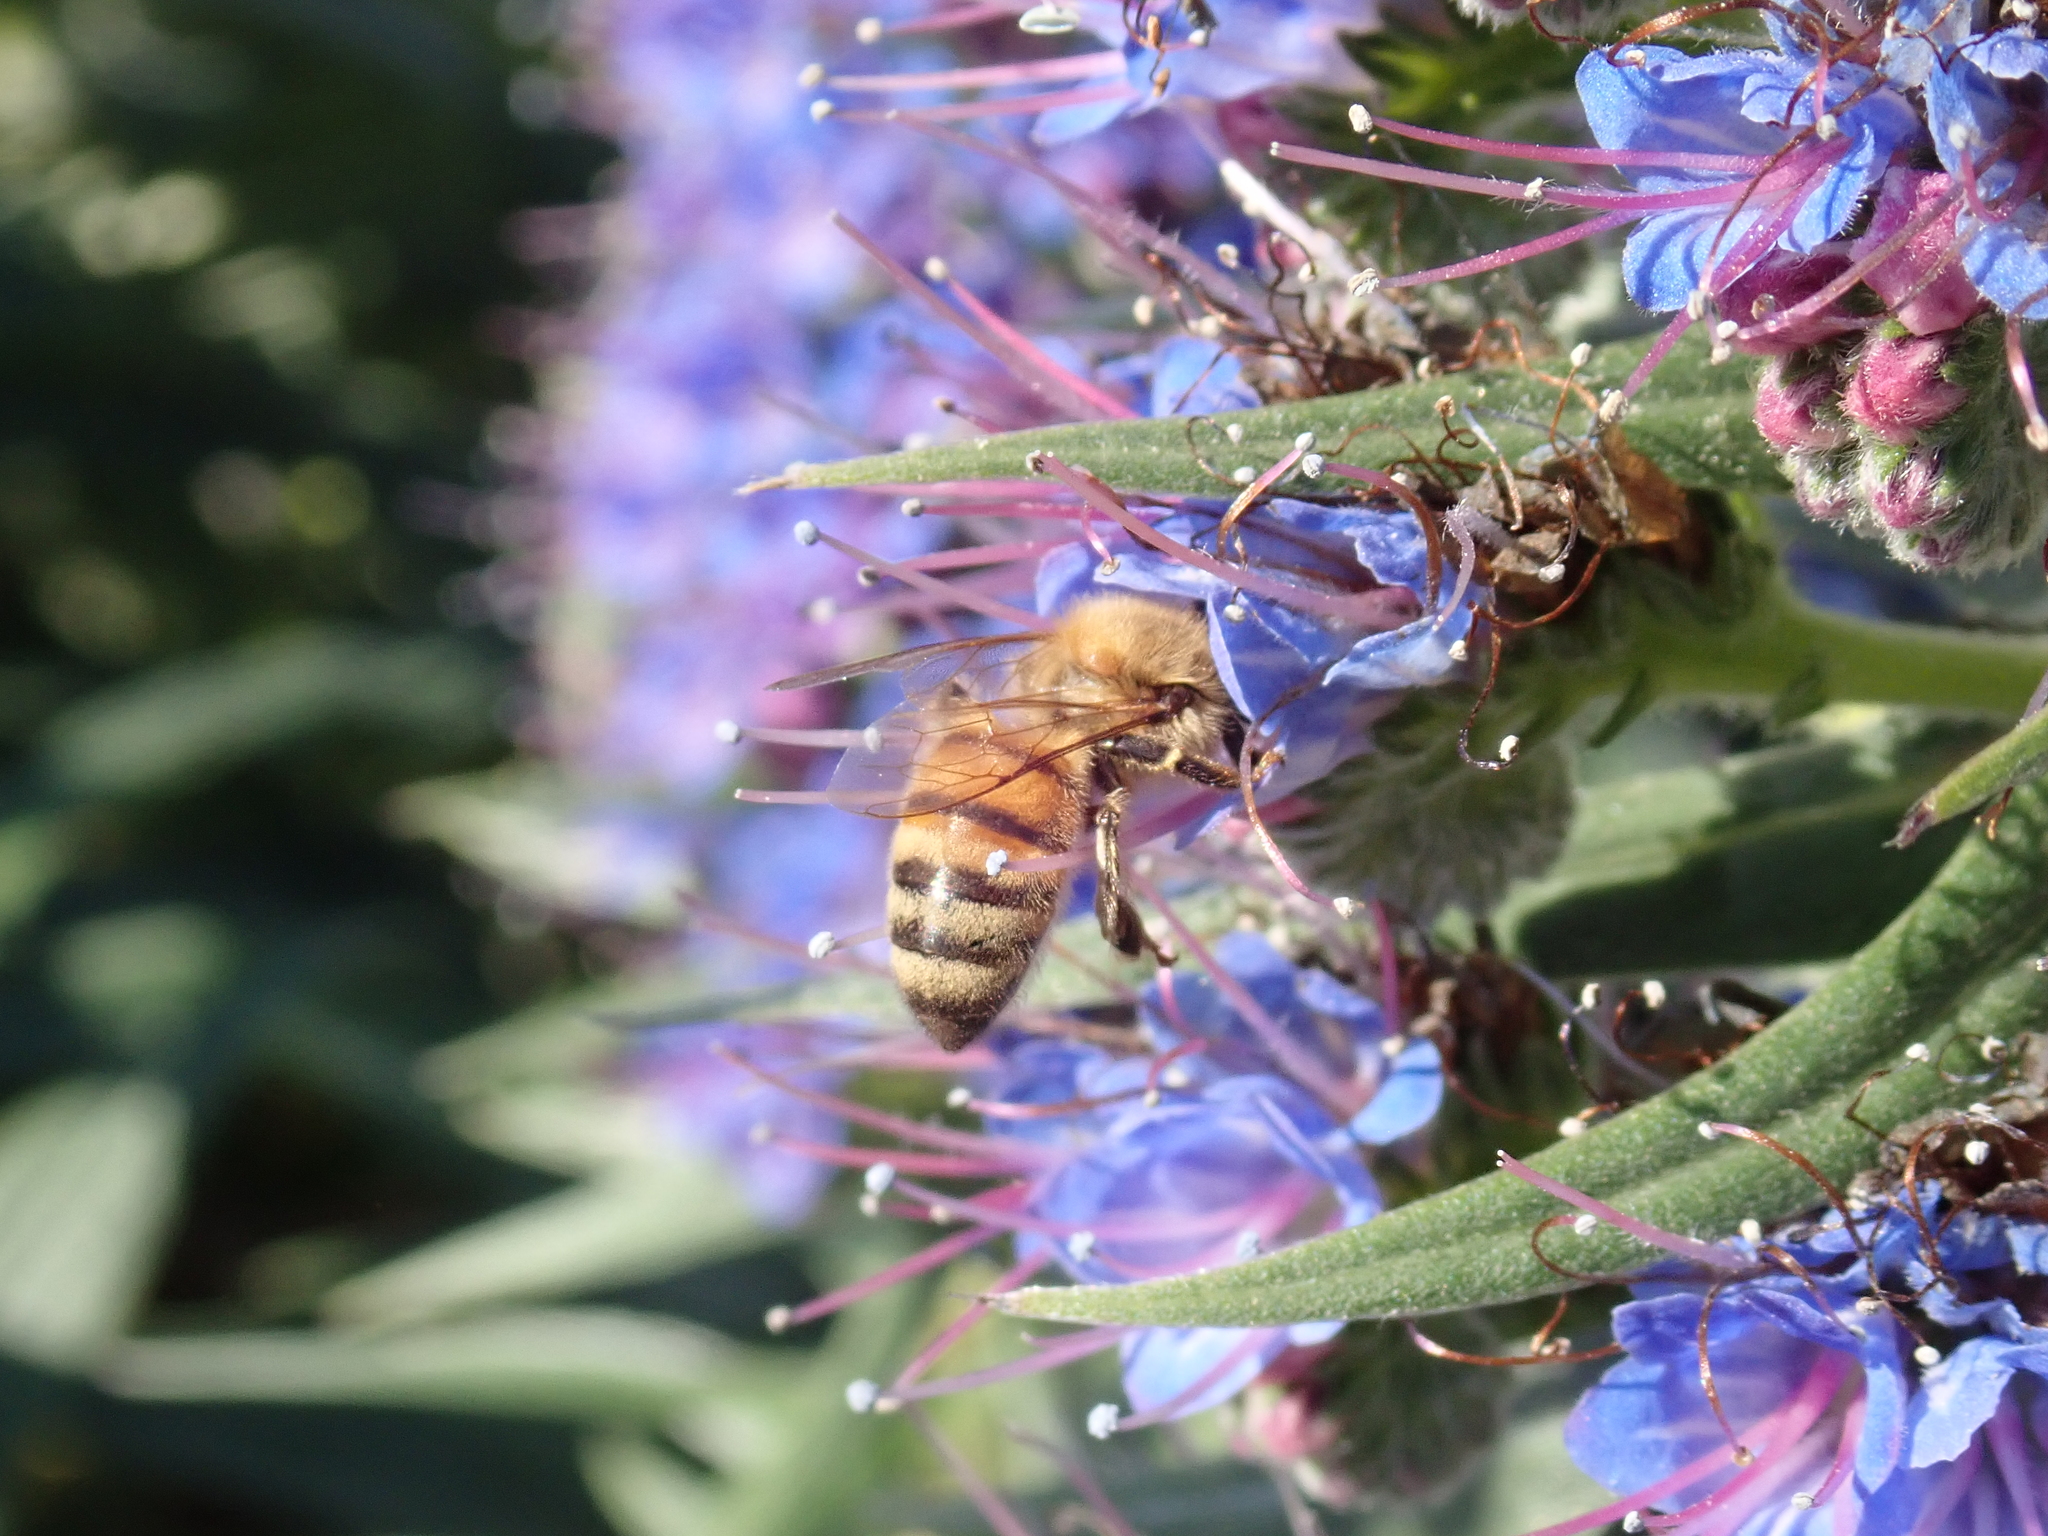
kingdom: Animalia
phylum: Arthropoda
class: Insecta
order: Hymenoptera
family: Apidae
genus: Apis
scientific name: Apis mellifera
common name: Honey bee
